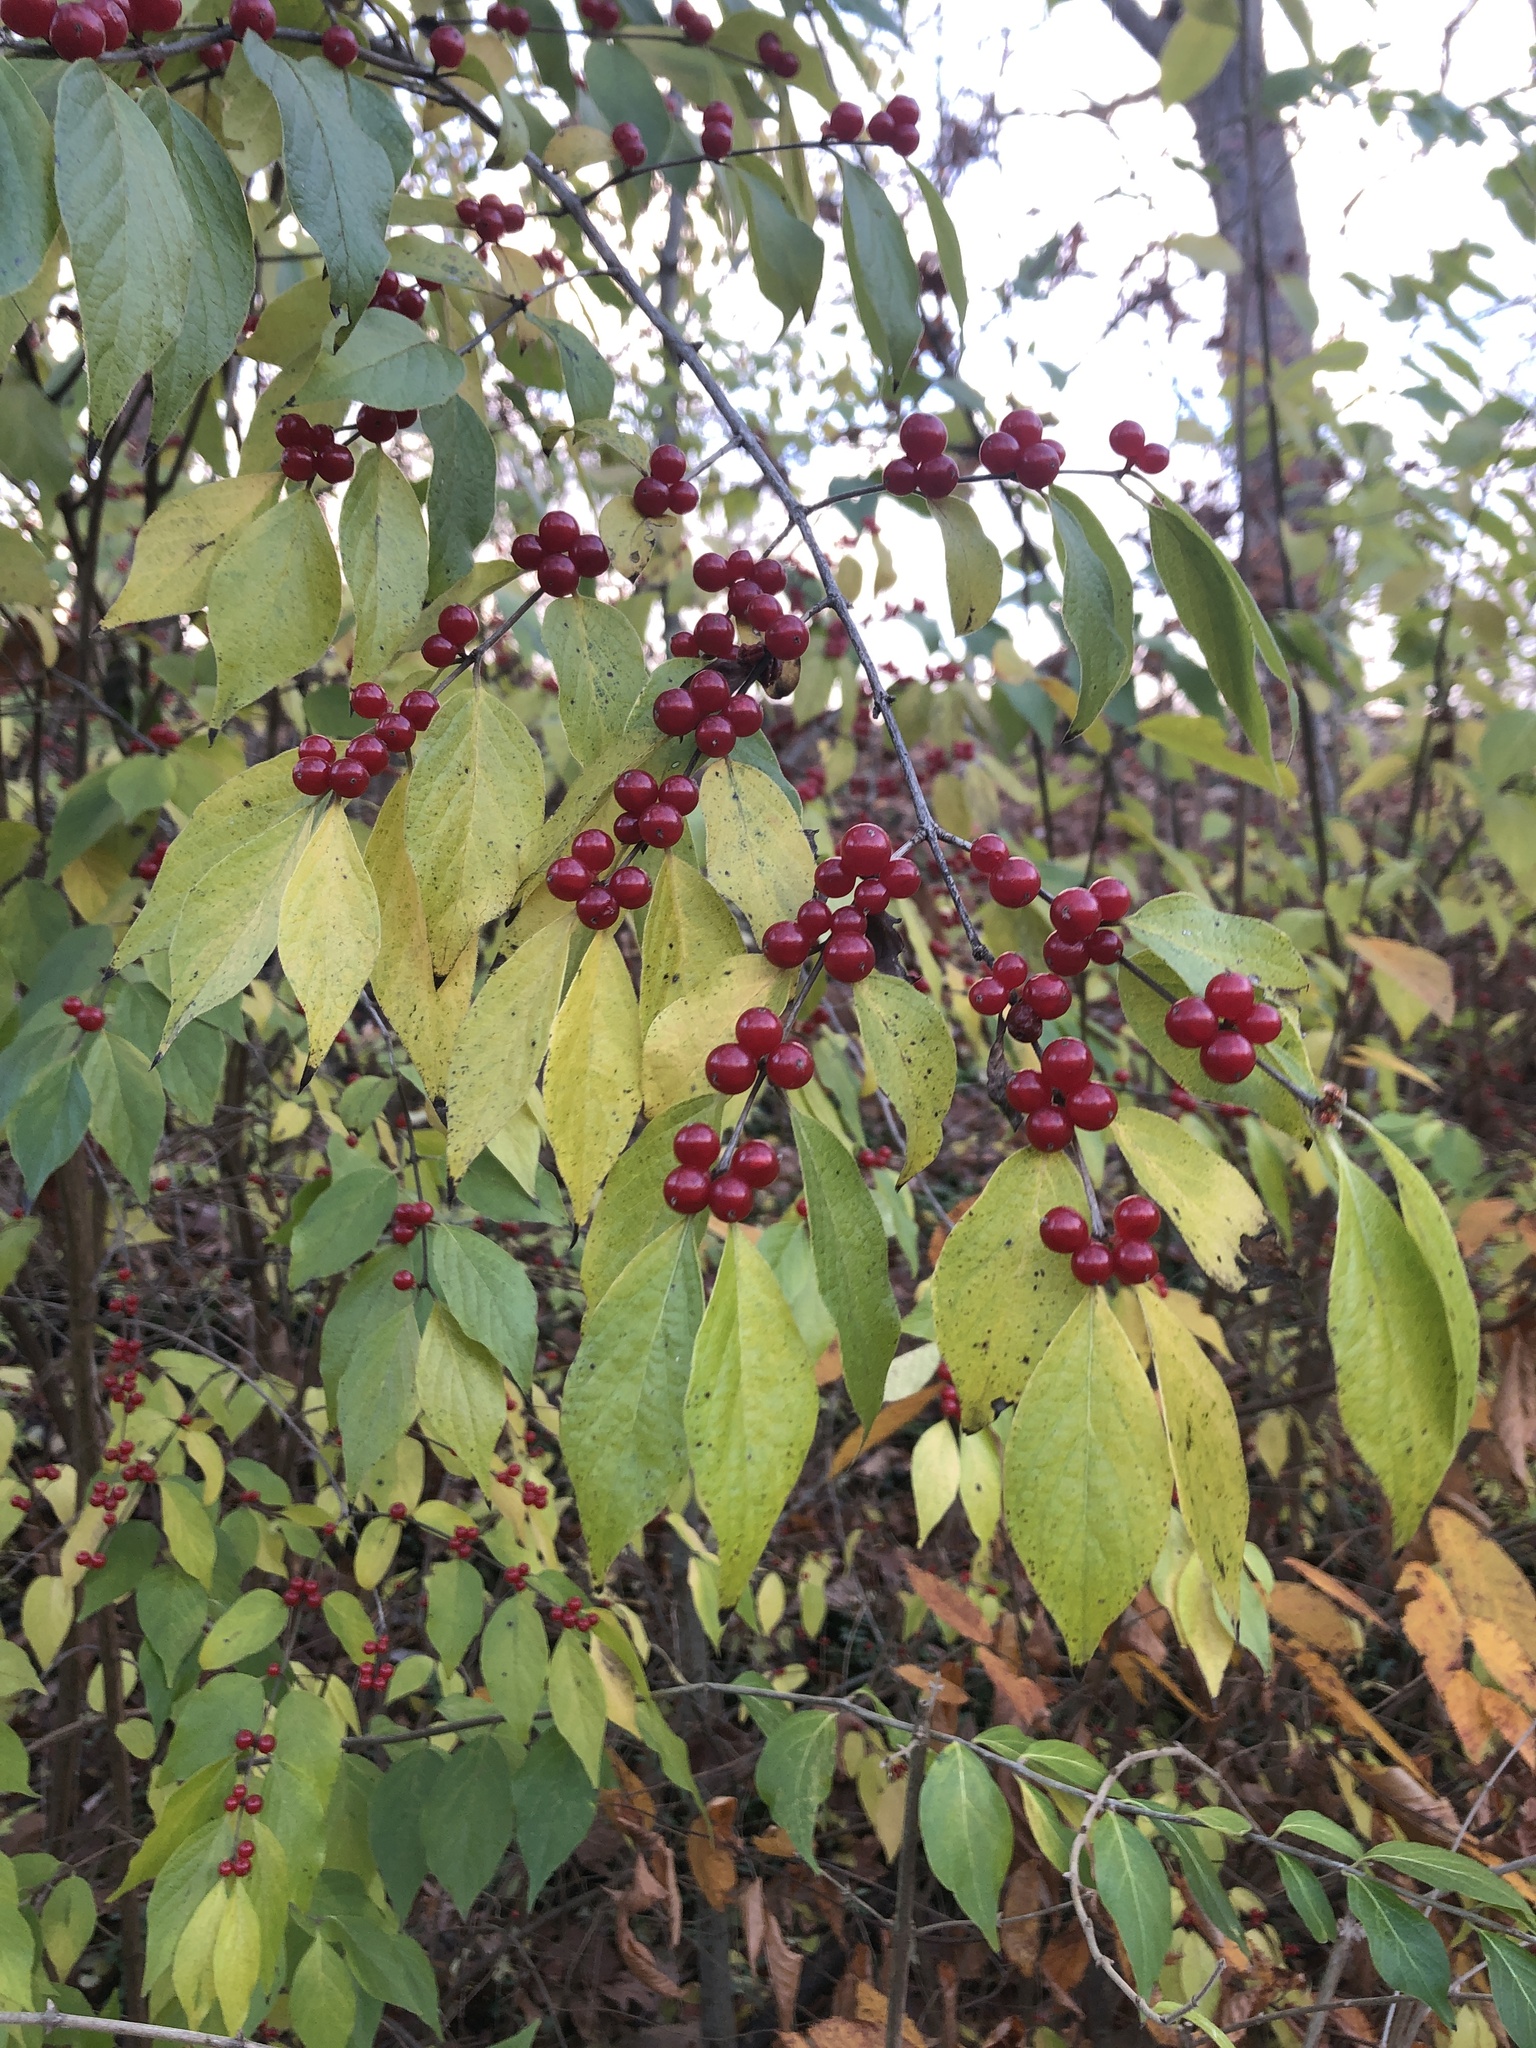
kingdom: Plantae
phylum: Tracheophyta
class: Magnoliopsida
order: Dipsacales
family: Caprifoliaceae
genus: Lonicera
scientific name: Lonicera maackii
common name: Amur honeysuckle
